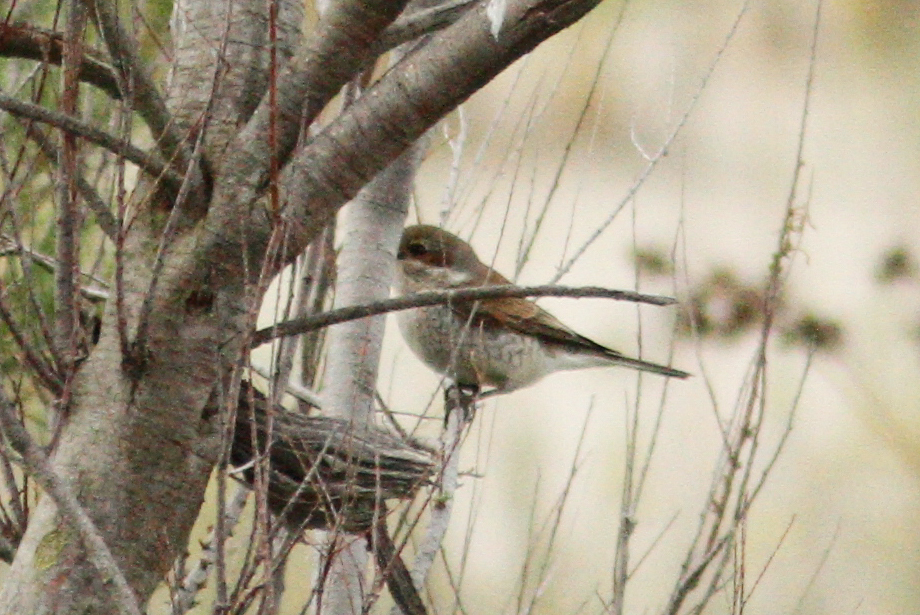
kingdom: Animalia
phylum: Chordata
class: Aves
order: Passeriformes
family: Laniidae
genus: Lanius
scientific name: Lanius collurio
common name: Red-backed shrike
